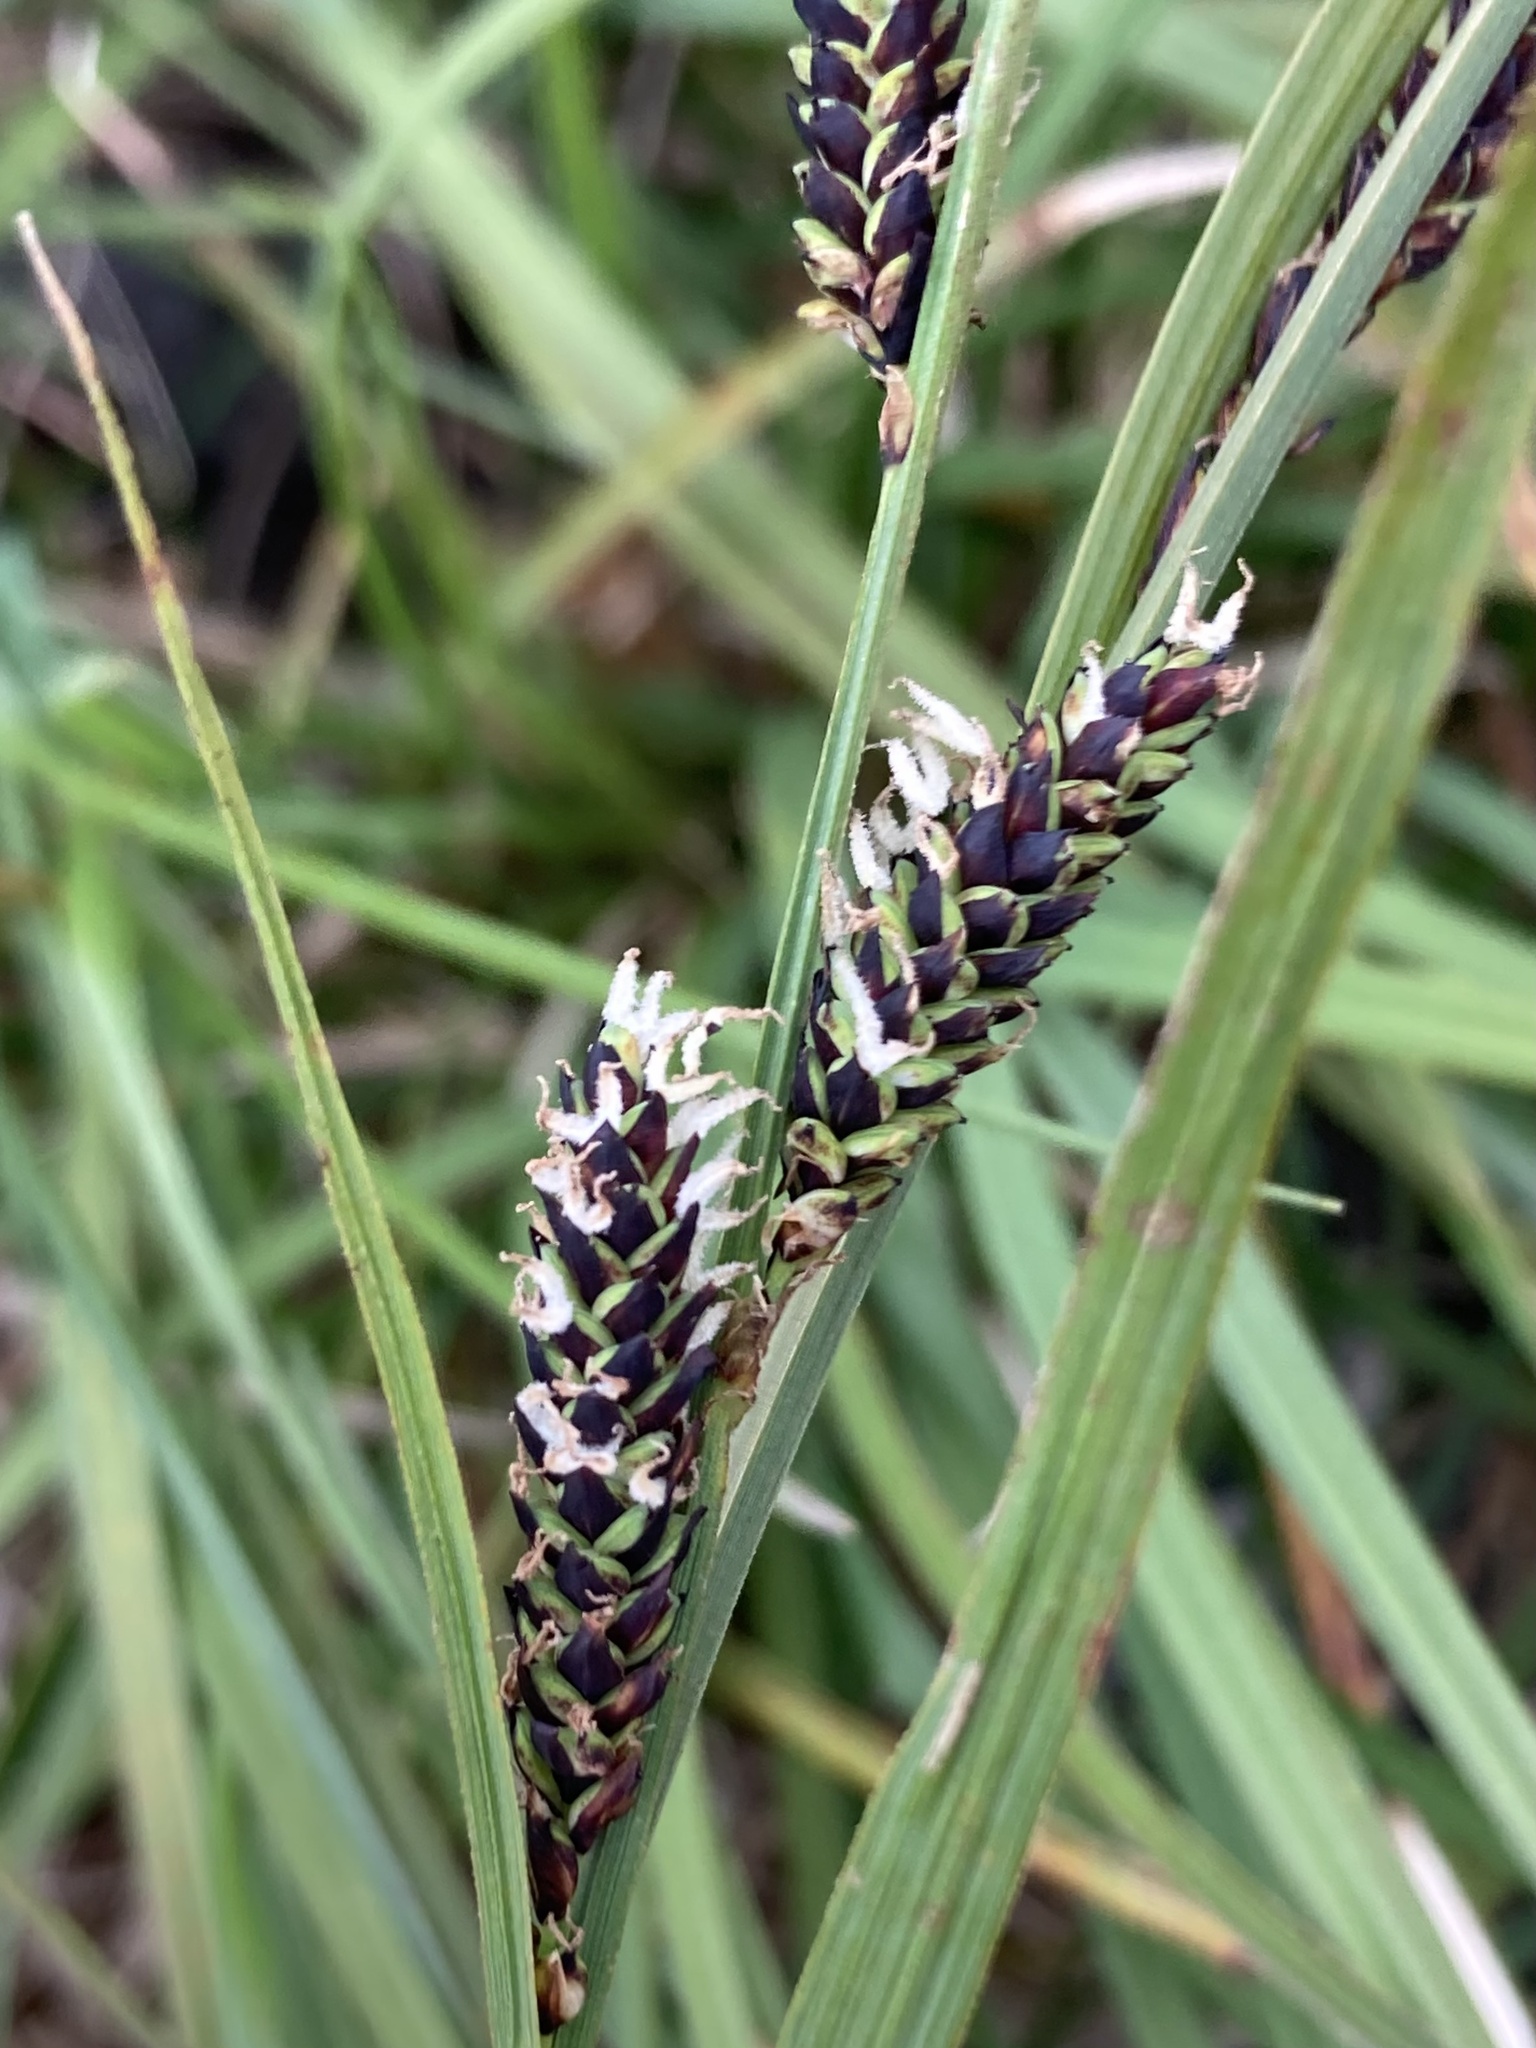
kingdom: Plantae
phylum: Tracheophyta
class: Liliopsida
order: Poales
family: Cyperaceae
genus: Carex
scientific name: Carex nigra
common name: Common sedge
